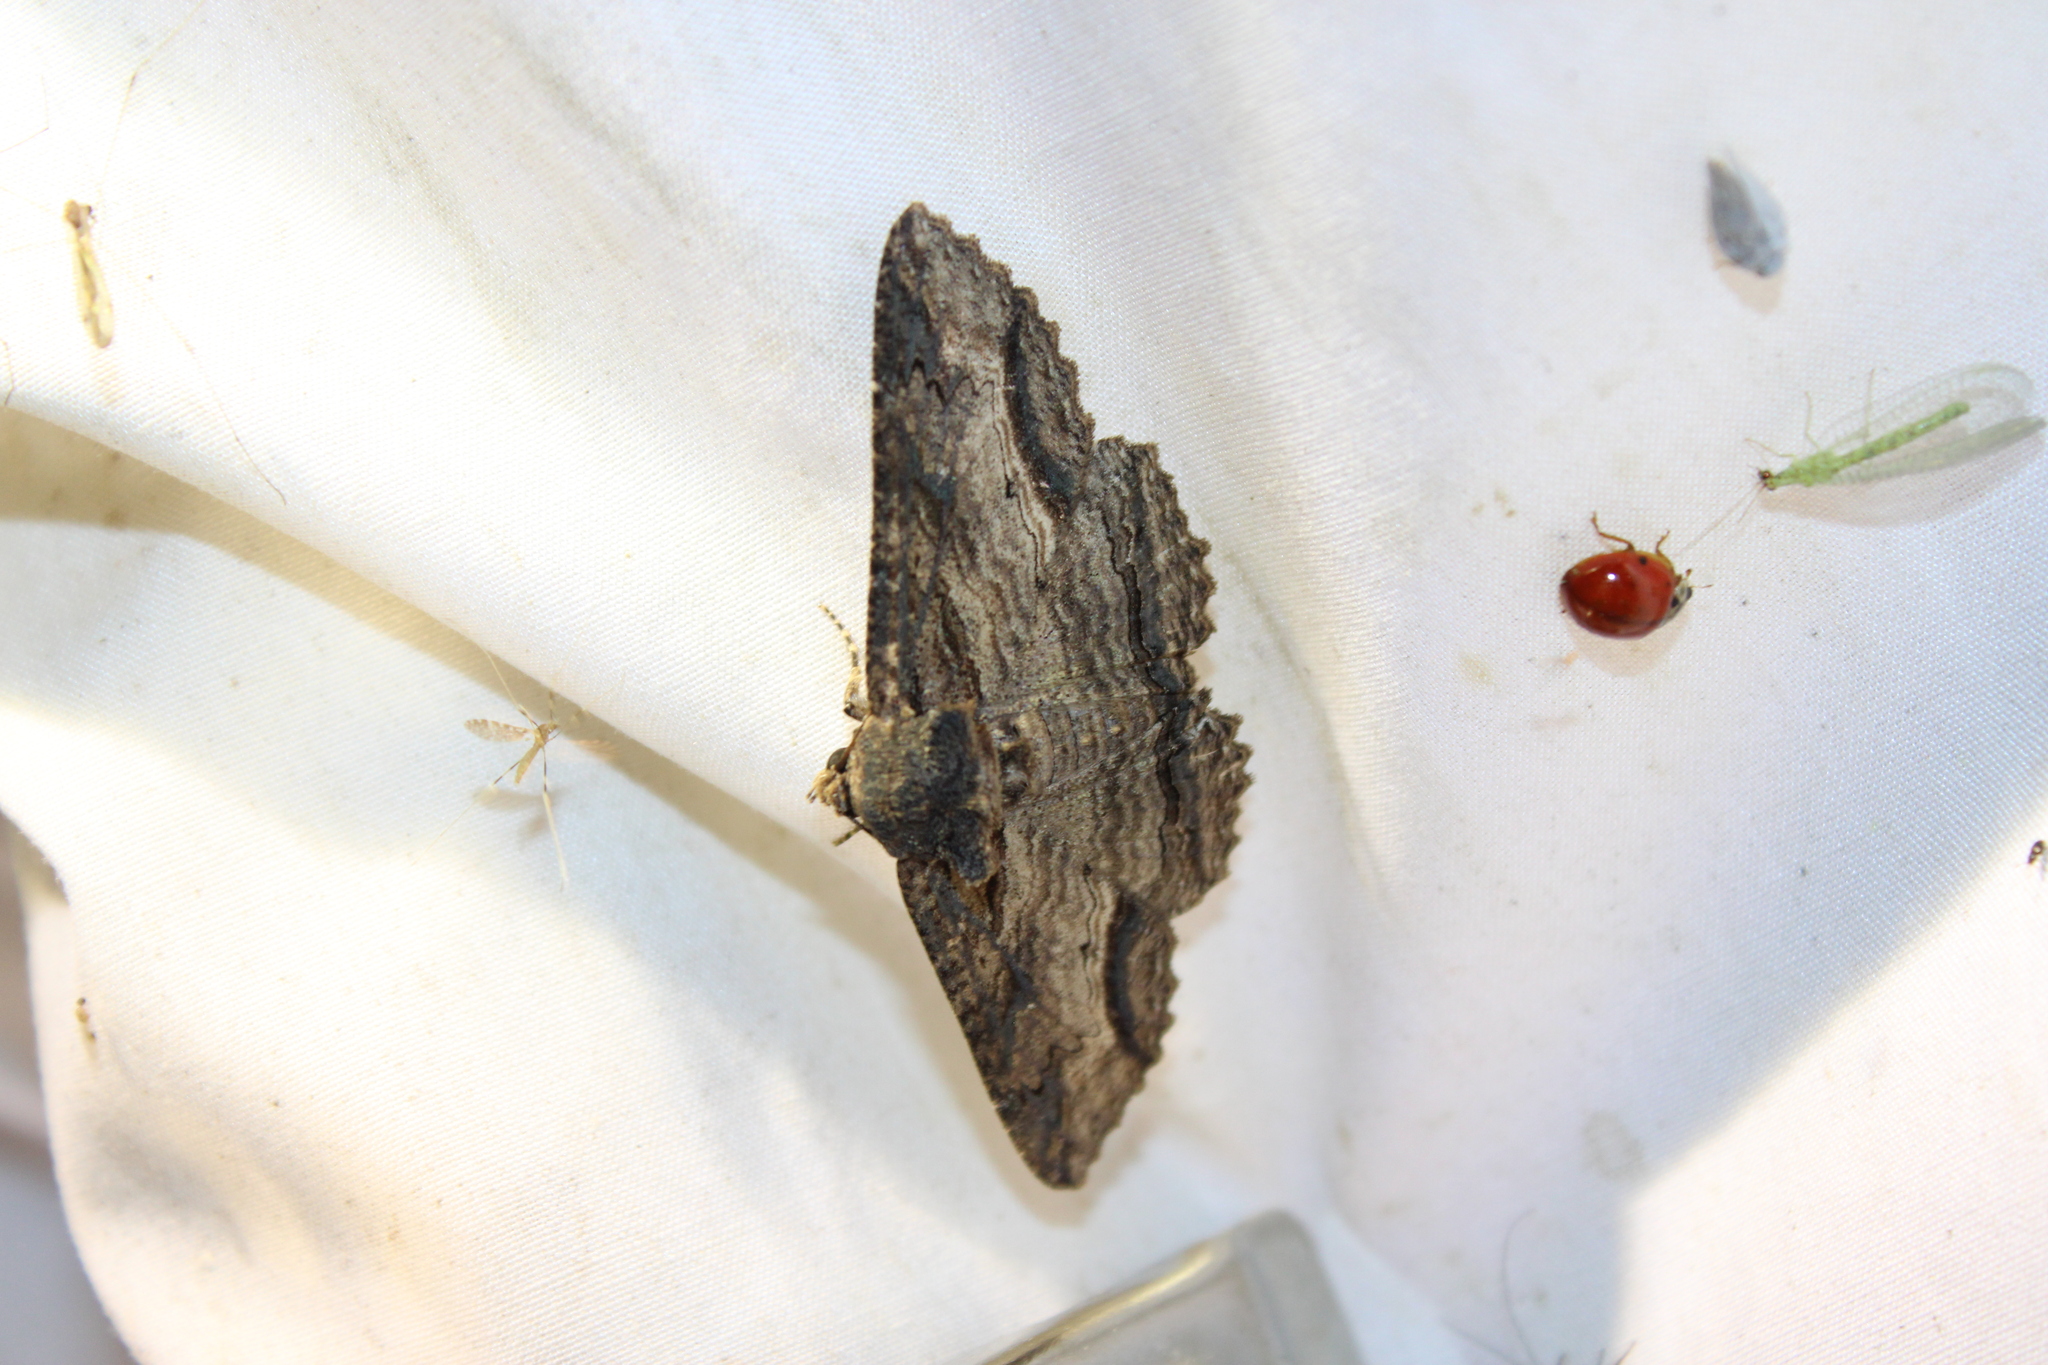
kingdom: Animalia
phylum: Arthropoda
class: Insecta
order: Lepidoptera
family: Erebidae
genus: Zale
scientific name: Zale lunata
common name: Lunate zale moth
